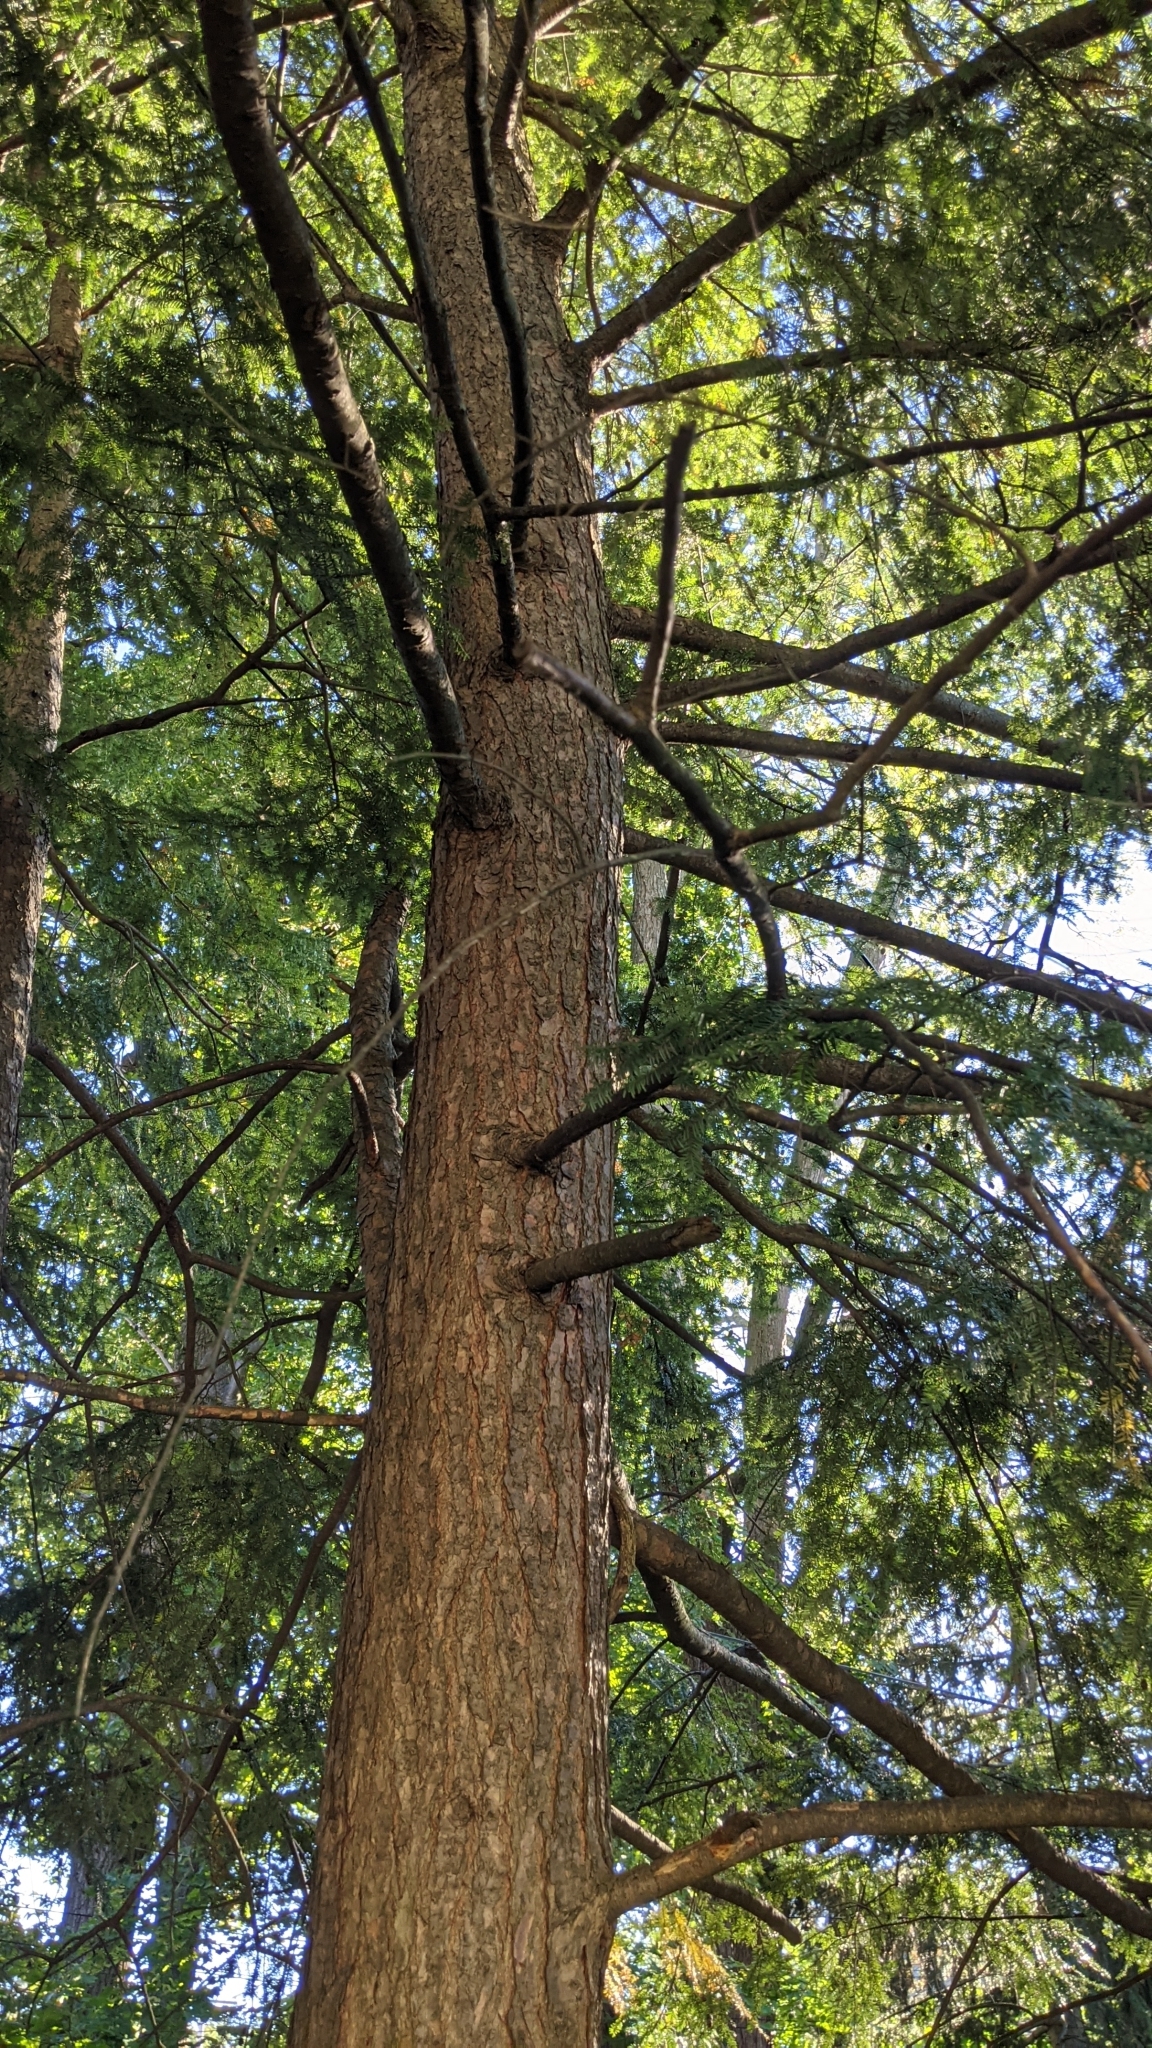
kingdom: Plantae
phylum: Tracheophyta
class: Pinopsida
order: Pinales
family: Pinaceae
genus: Tsuga
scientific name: Tsuga canadensis
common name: Eastern hemlock
